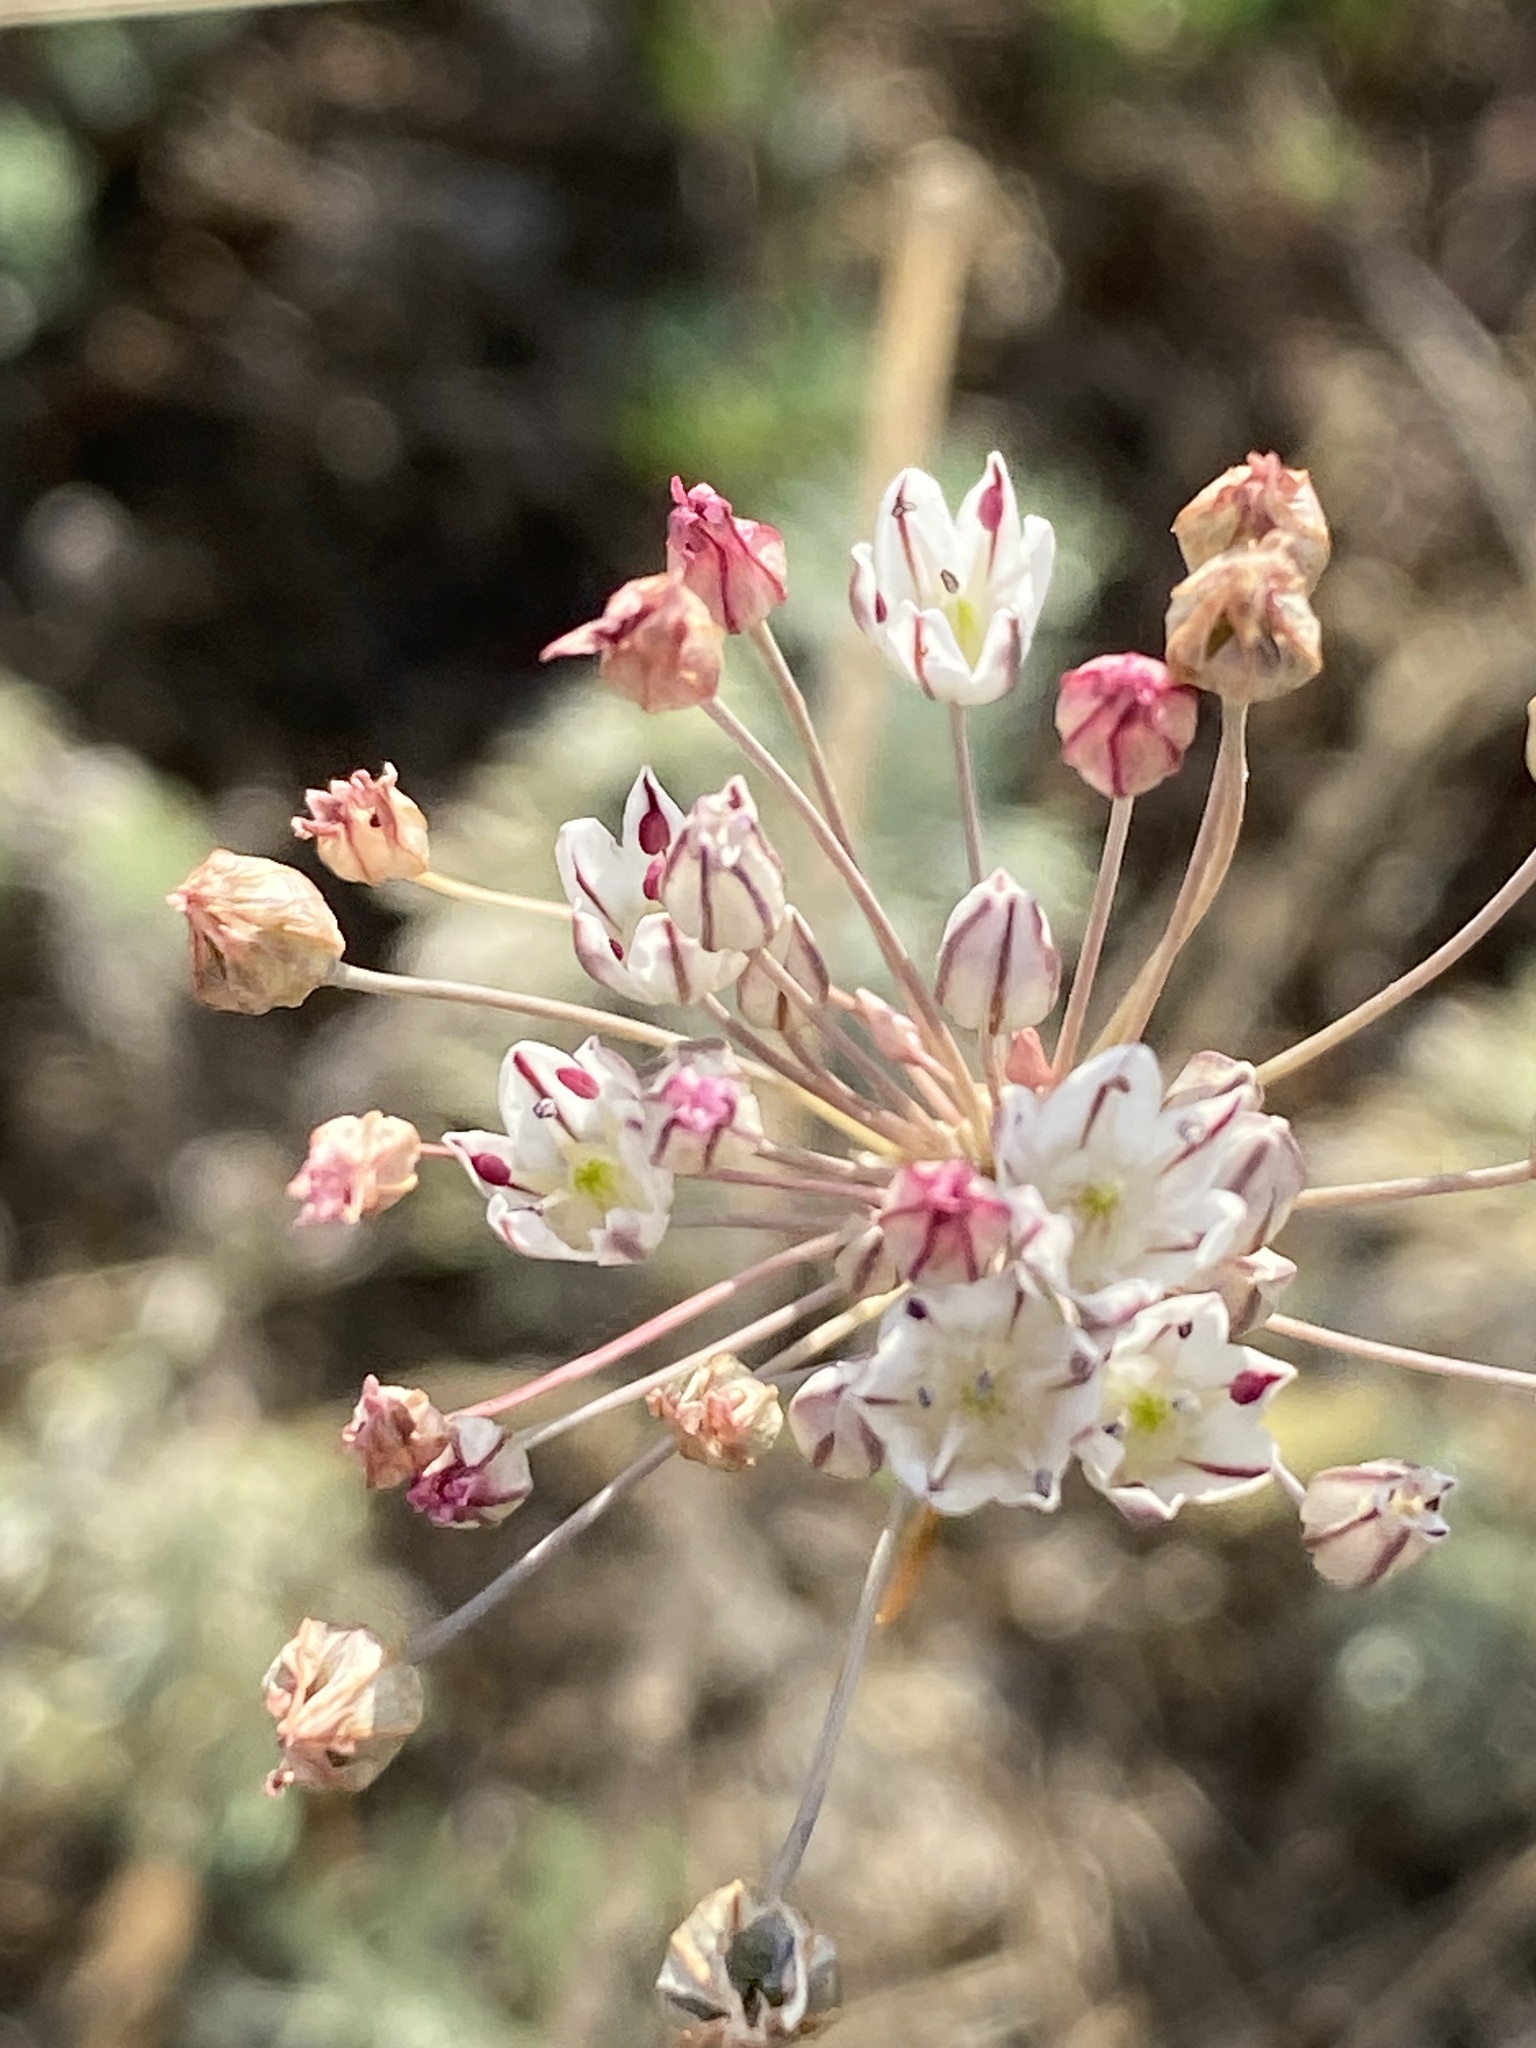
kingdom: Plantae
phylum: Tracheophyta
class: Liliopsida
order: Asparagales
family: Amaryllidaceae
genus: Allium
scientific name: Allium inaequale
